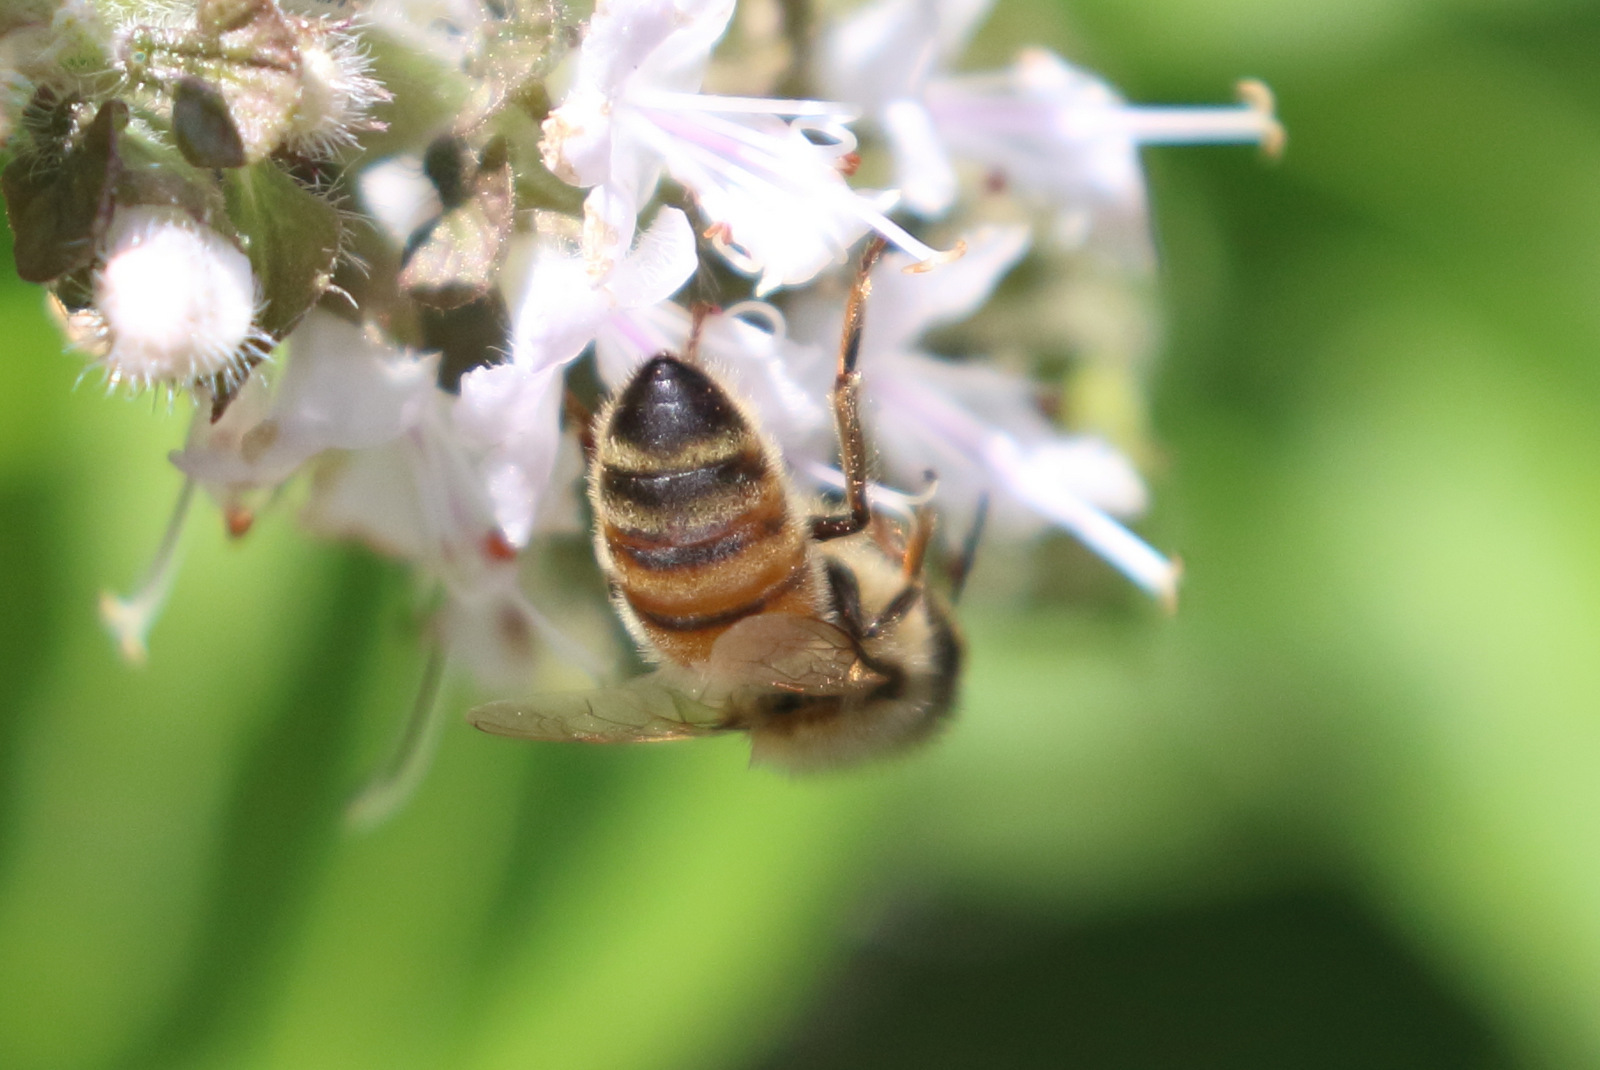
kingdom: Animalia
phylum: Arthropoda
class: Insecta
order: Hymenoptera
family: Apidae
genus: Apis
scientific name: Apis mellifera
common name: Honey bee
